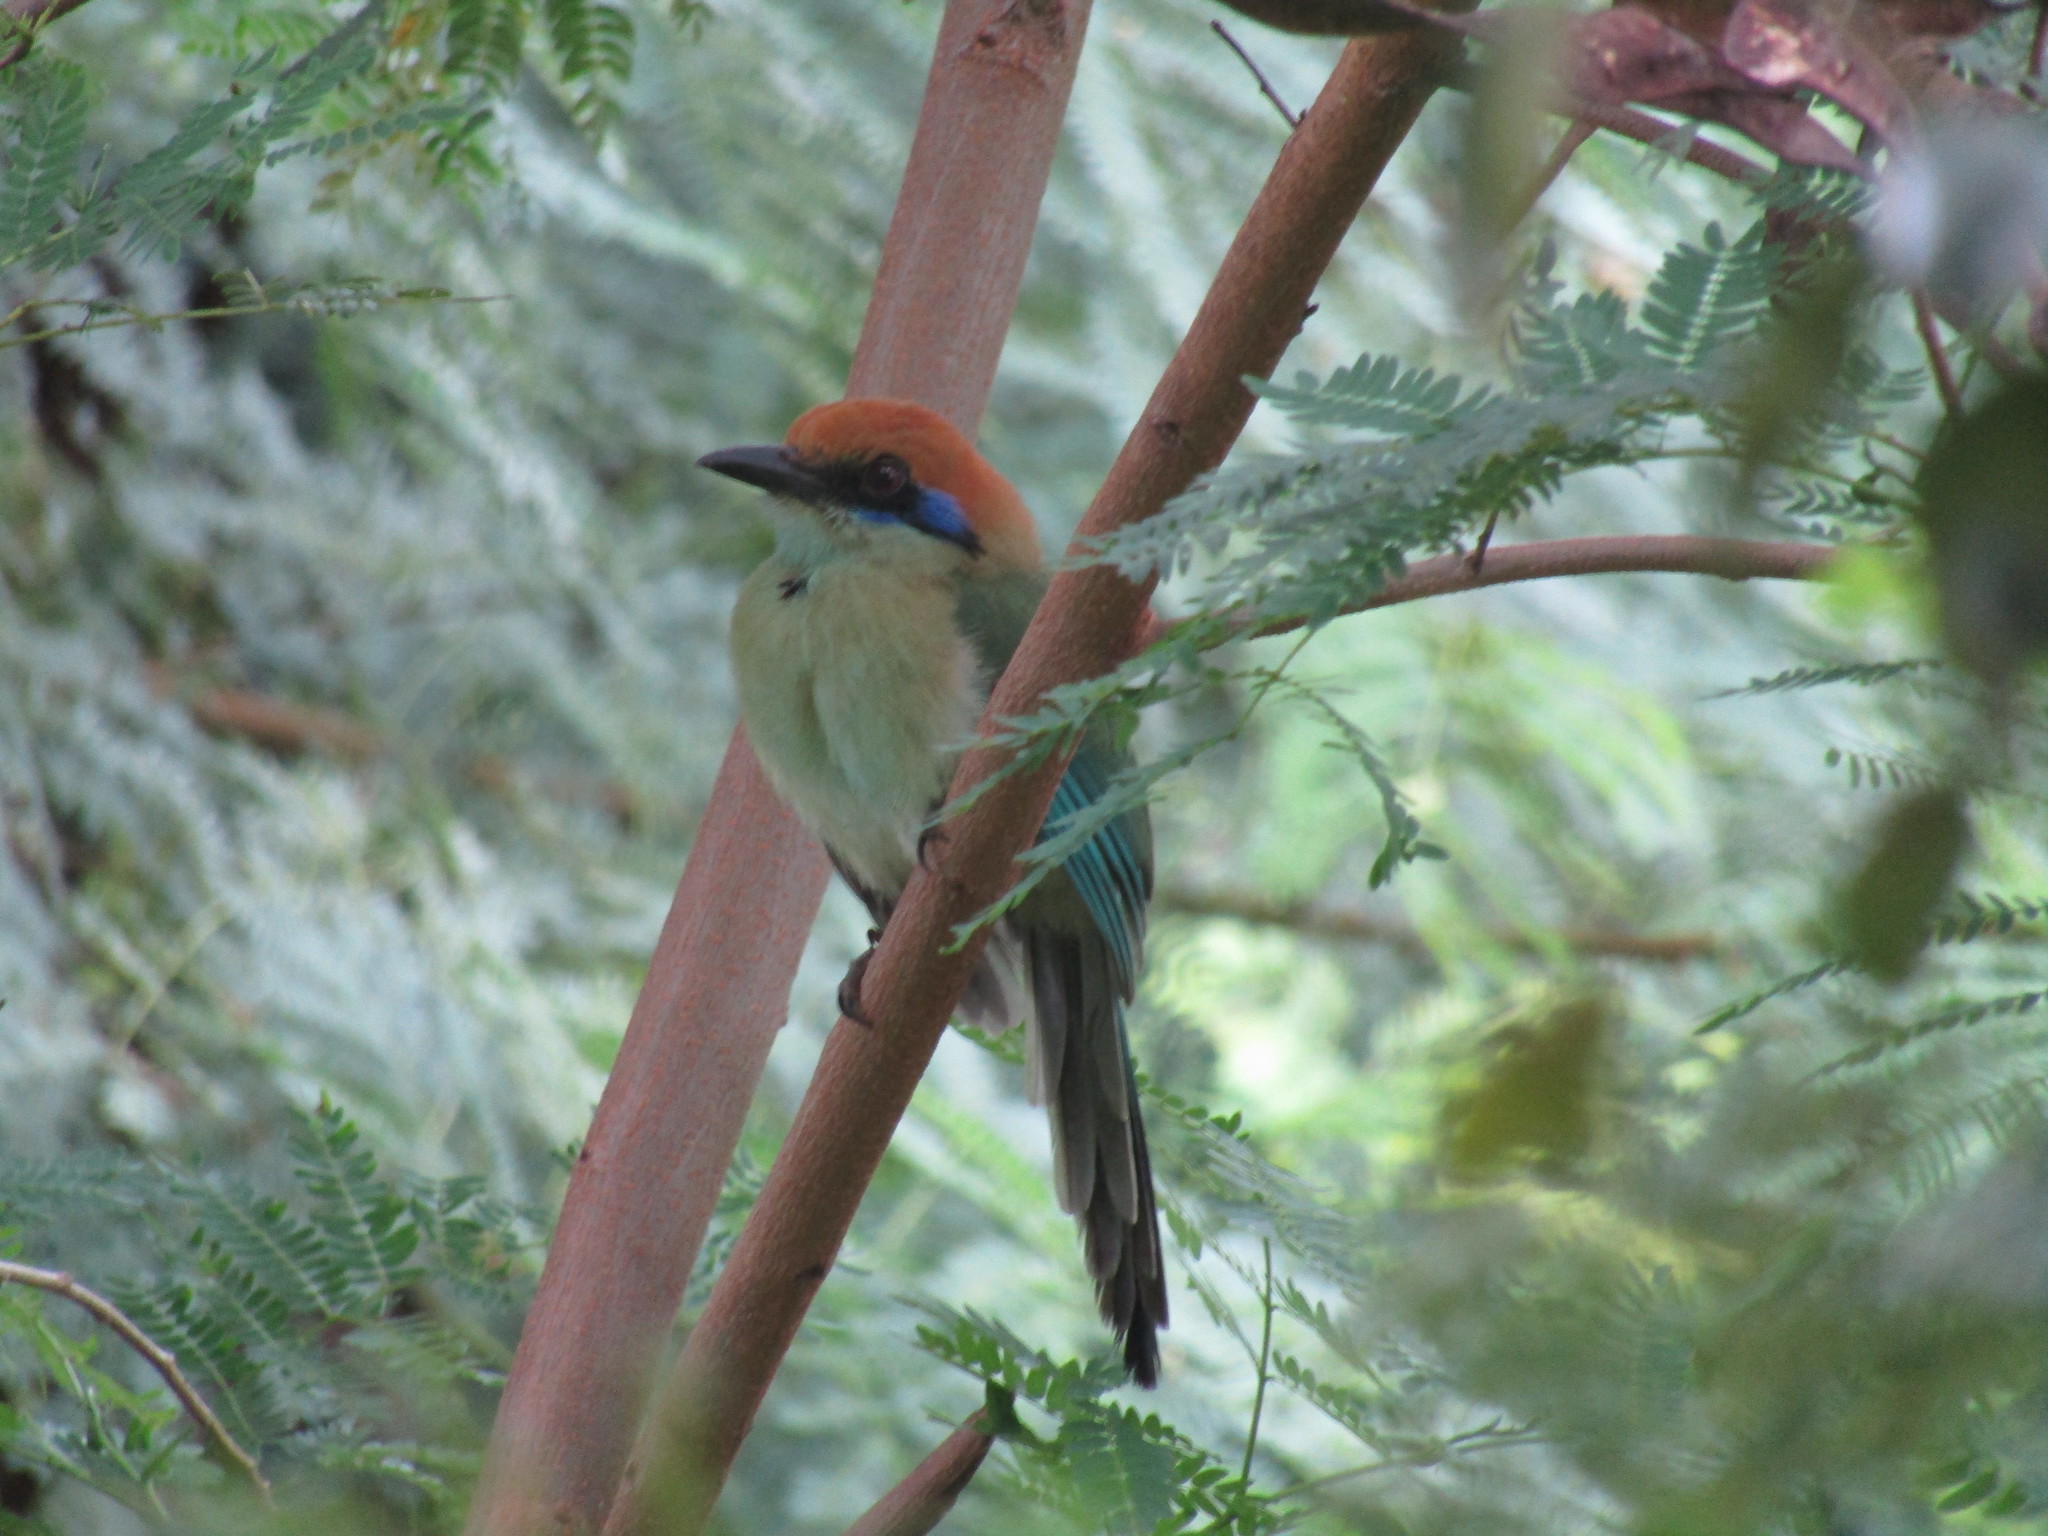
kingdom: Animalia
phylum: Chordata
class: Aves
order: Coraciiformes
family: Momotidae
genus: Momotus
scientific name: Momotus mexicanus
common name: Russet-crowned motmot
